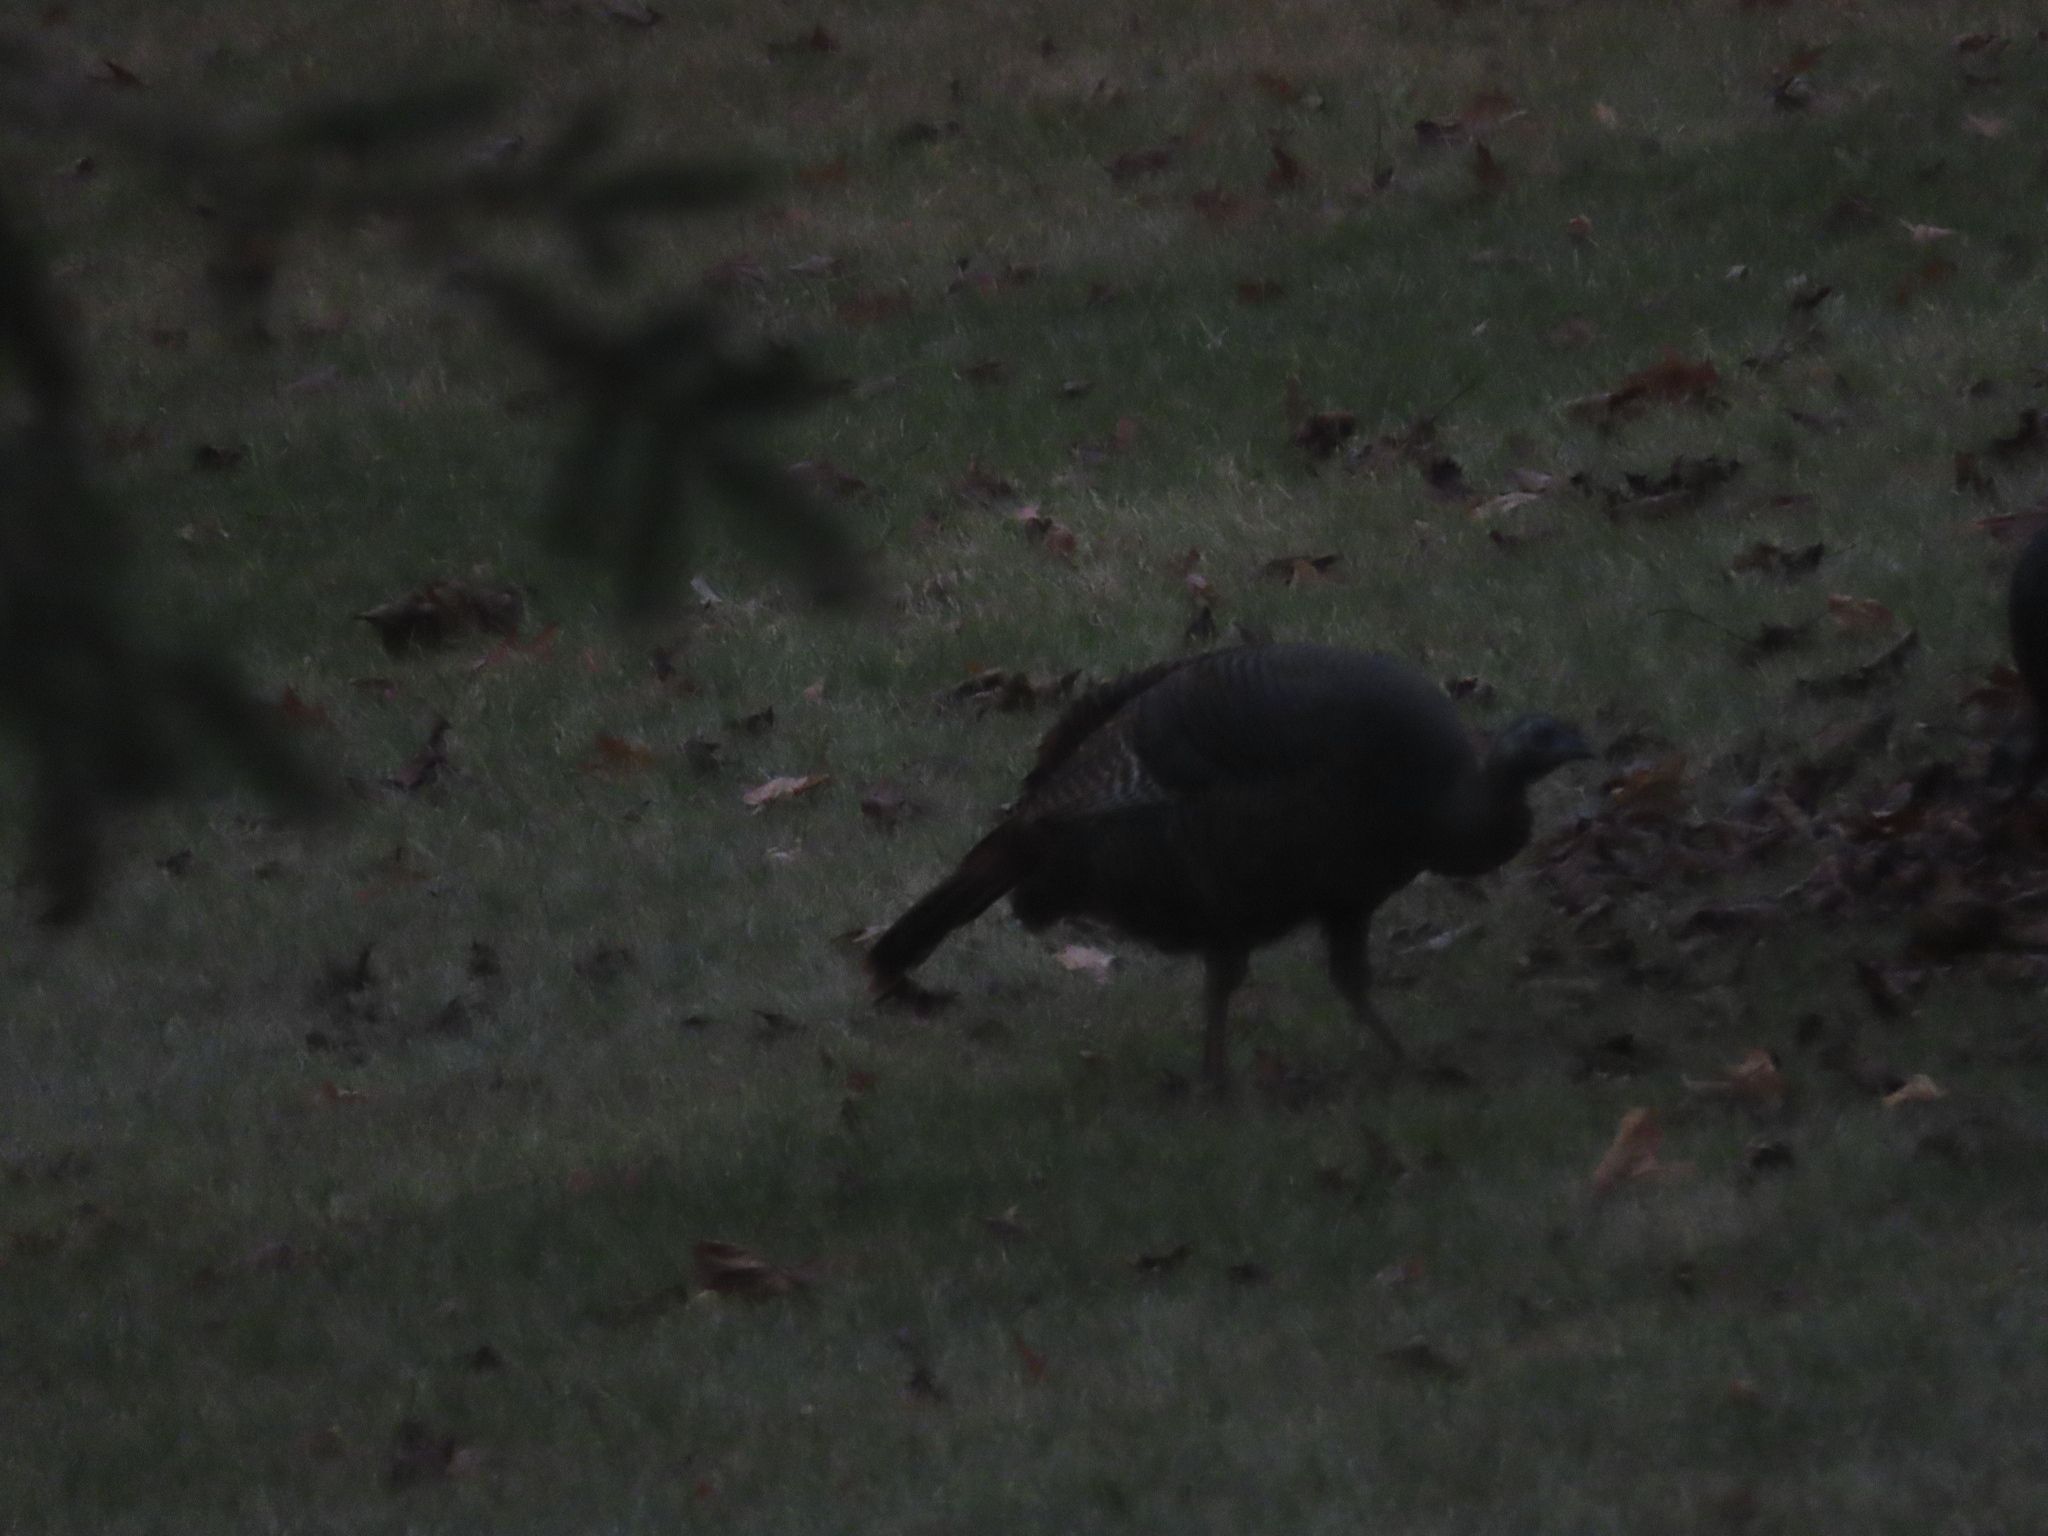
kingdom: Animalia
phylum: Chordata
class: Aves
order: Galliformes
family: Phasianidae
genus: Meleagris
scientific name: Meleagris gallopavo
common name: Wild turkey
